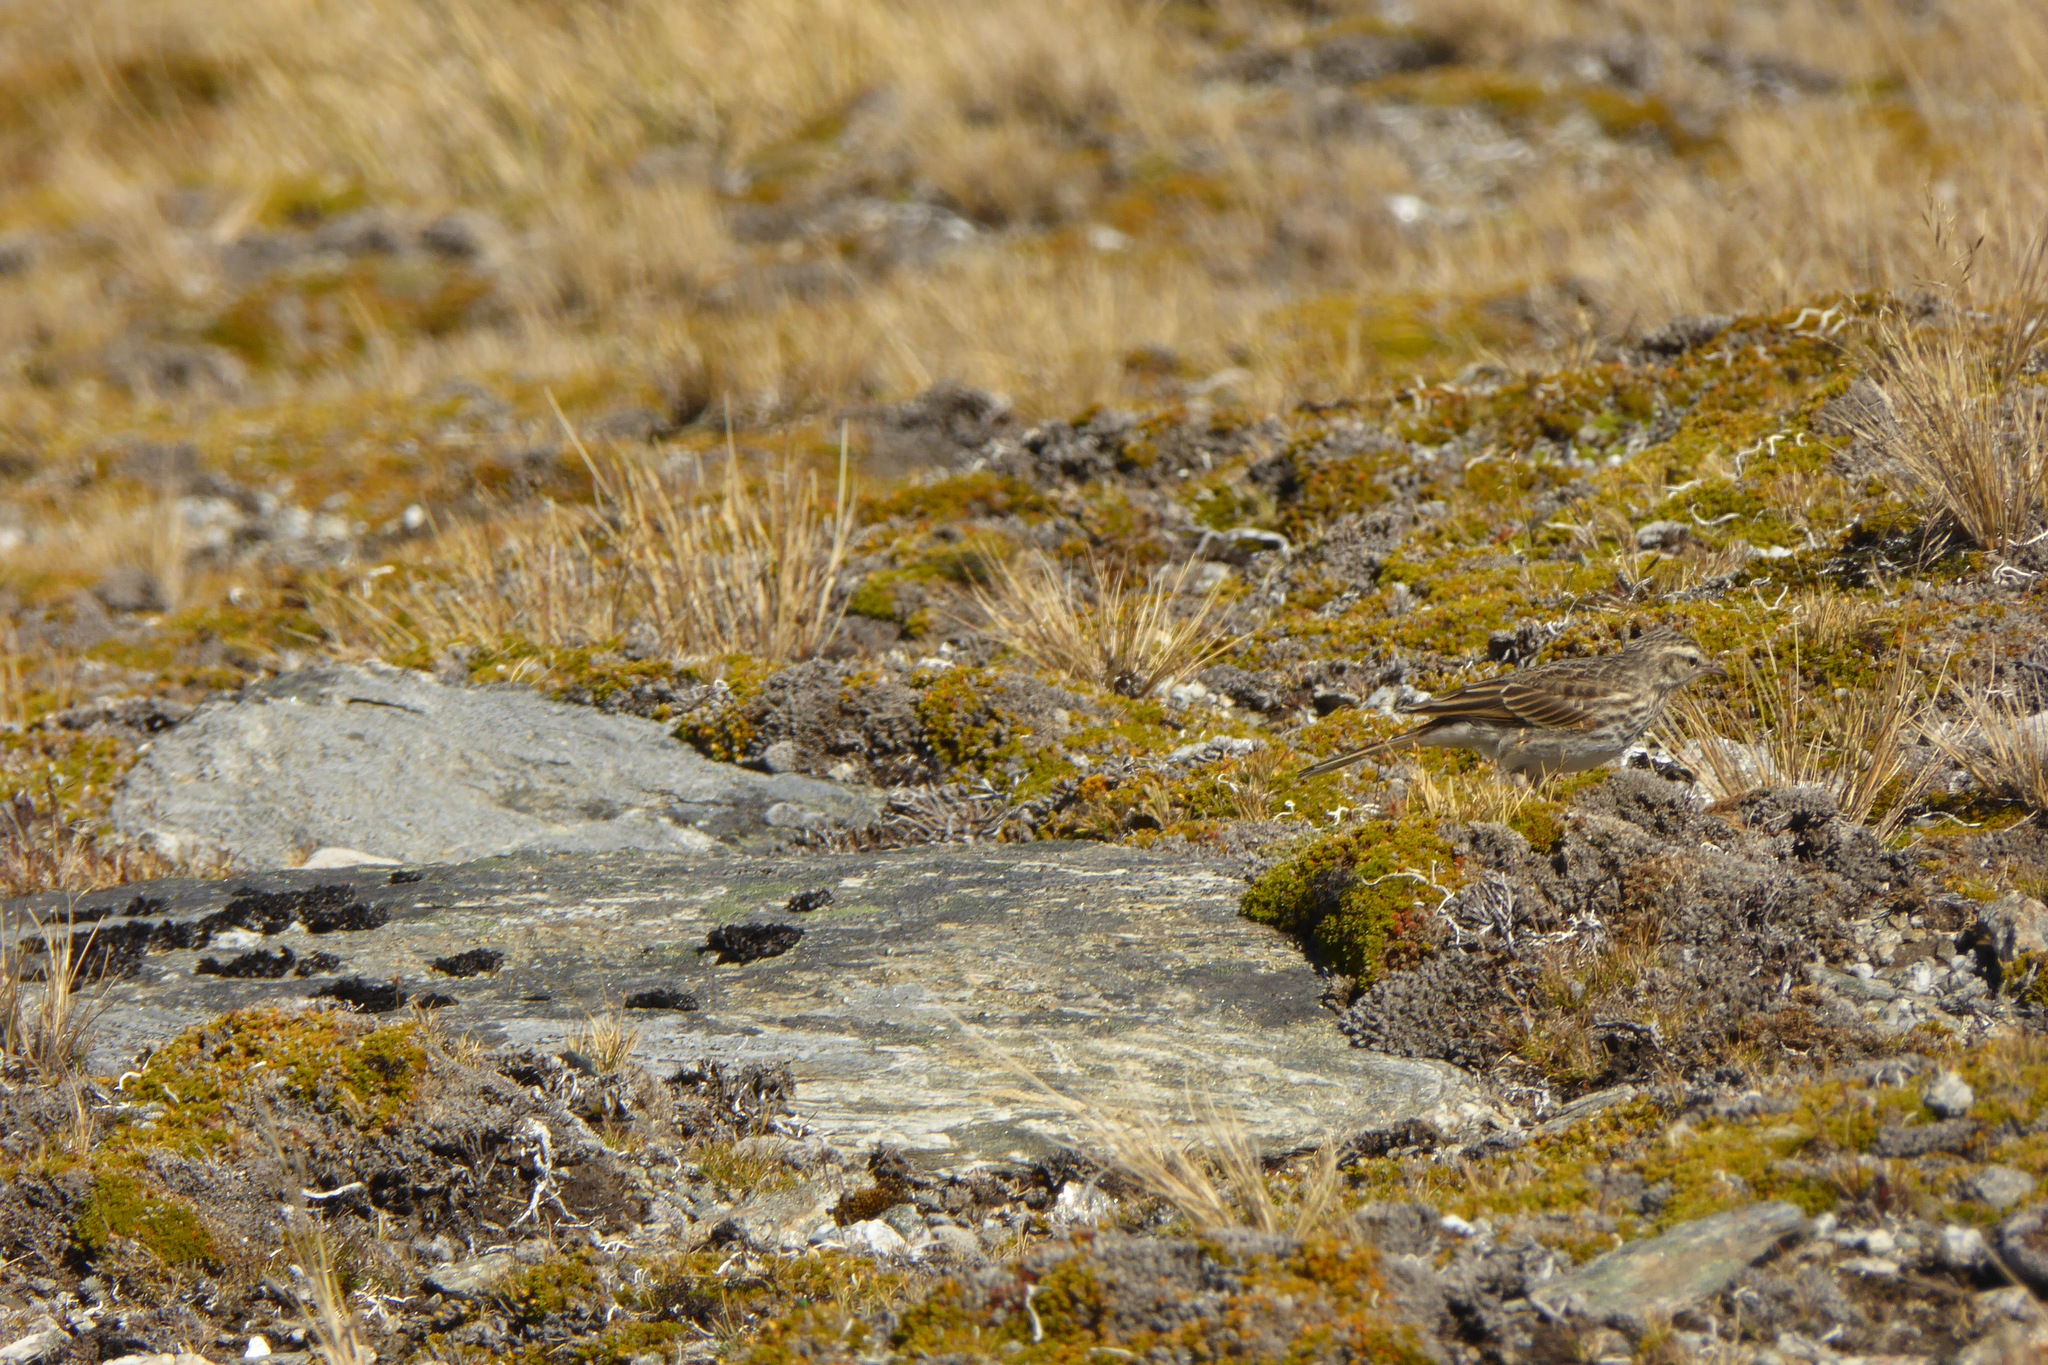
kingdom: Animalia
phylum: Chordata
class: Aves
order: Passeriformes
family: Motacillidae
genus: Anthus
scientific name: Anthus novaeseelandiae
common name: New zealand pipit
